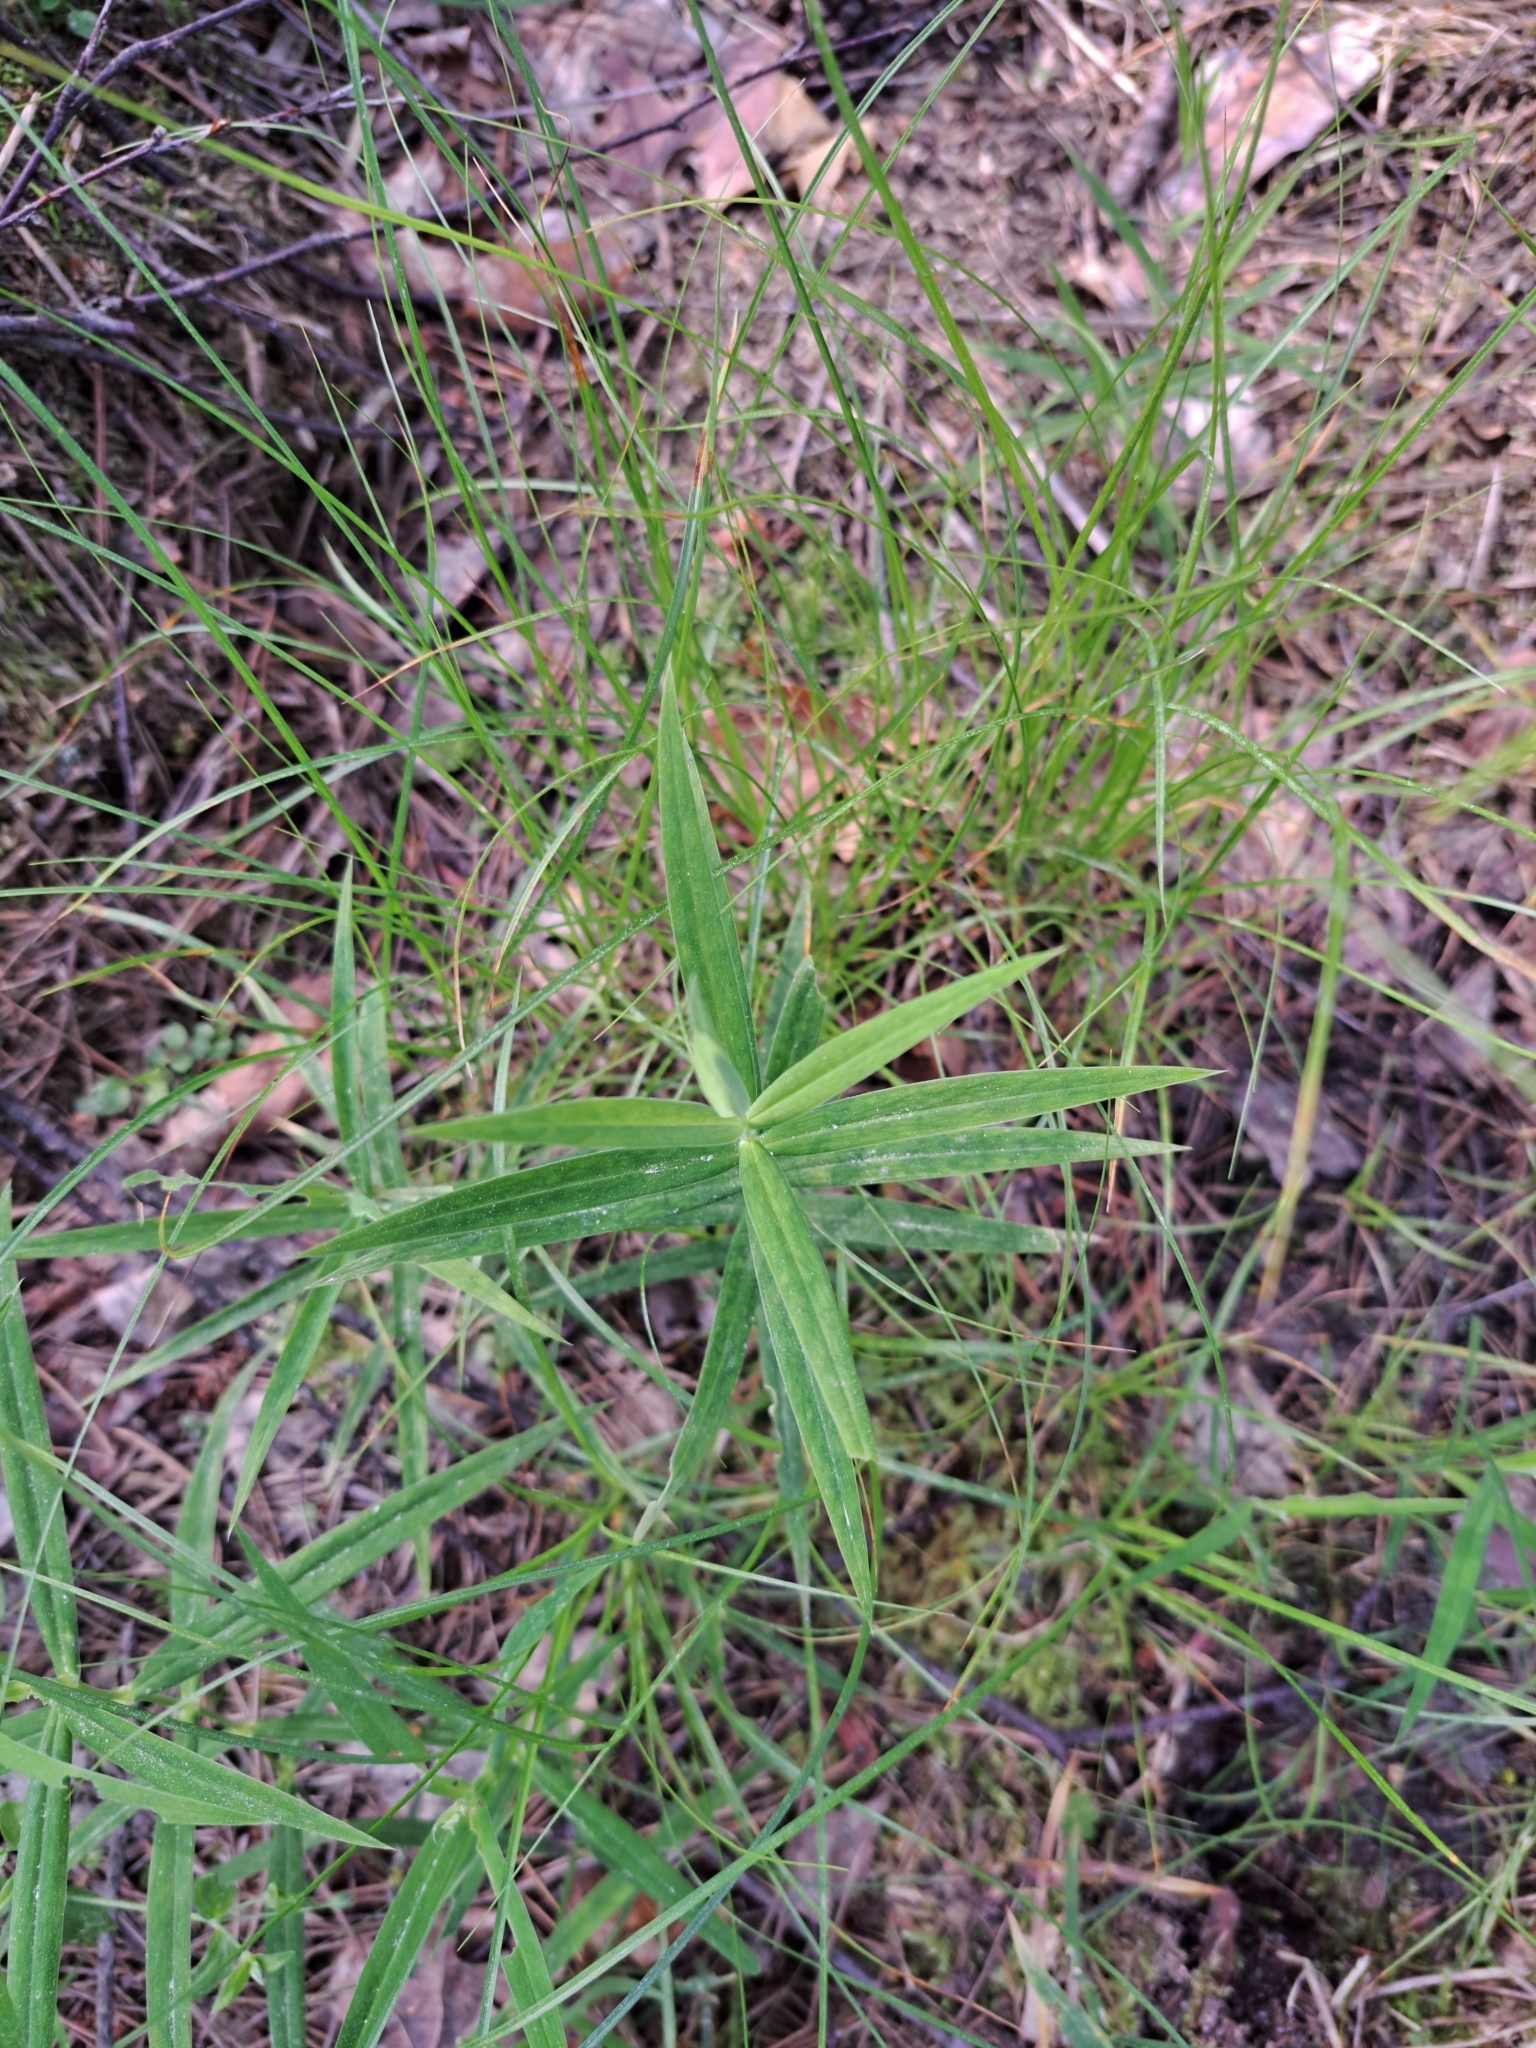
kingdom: Plantae
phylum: Tracheophyta
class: Magnoliopsida
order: Caryophyllales
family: Caryophyllaceae
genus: Rabelera
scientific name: Rabelera holostea
